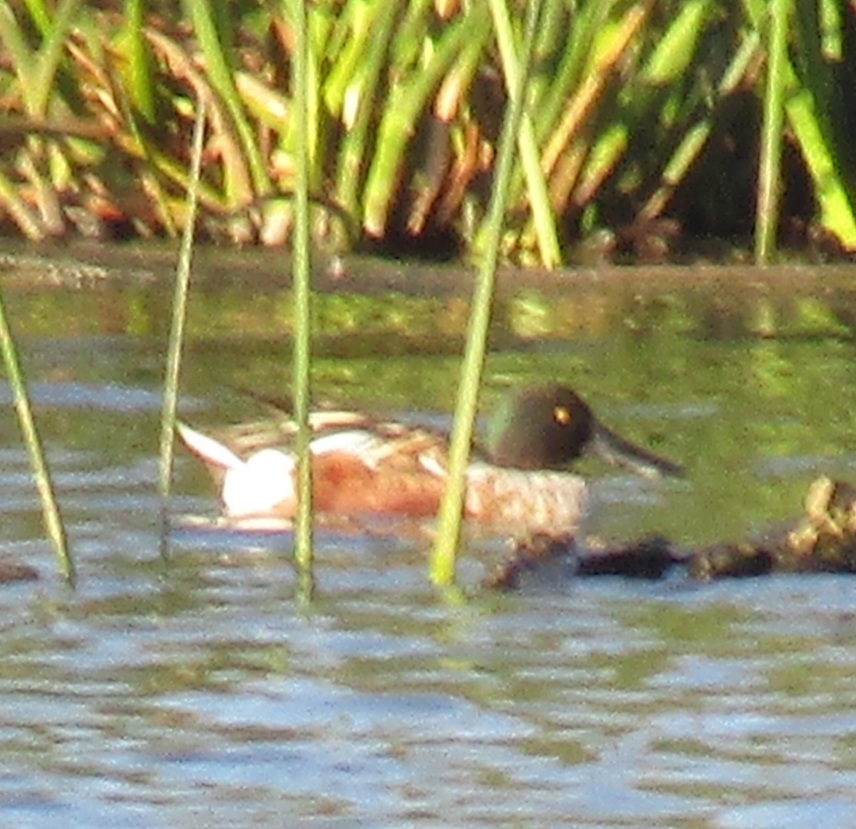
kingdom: Animalia
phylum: Chordata
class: Aves
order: Anseriformes
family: Anatidae
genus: Spatula
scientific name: Spatula clypeata
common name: Northern shoveler
